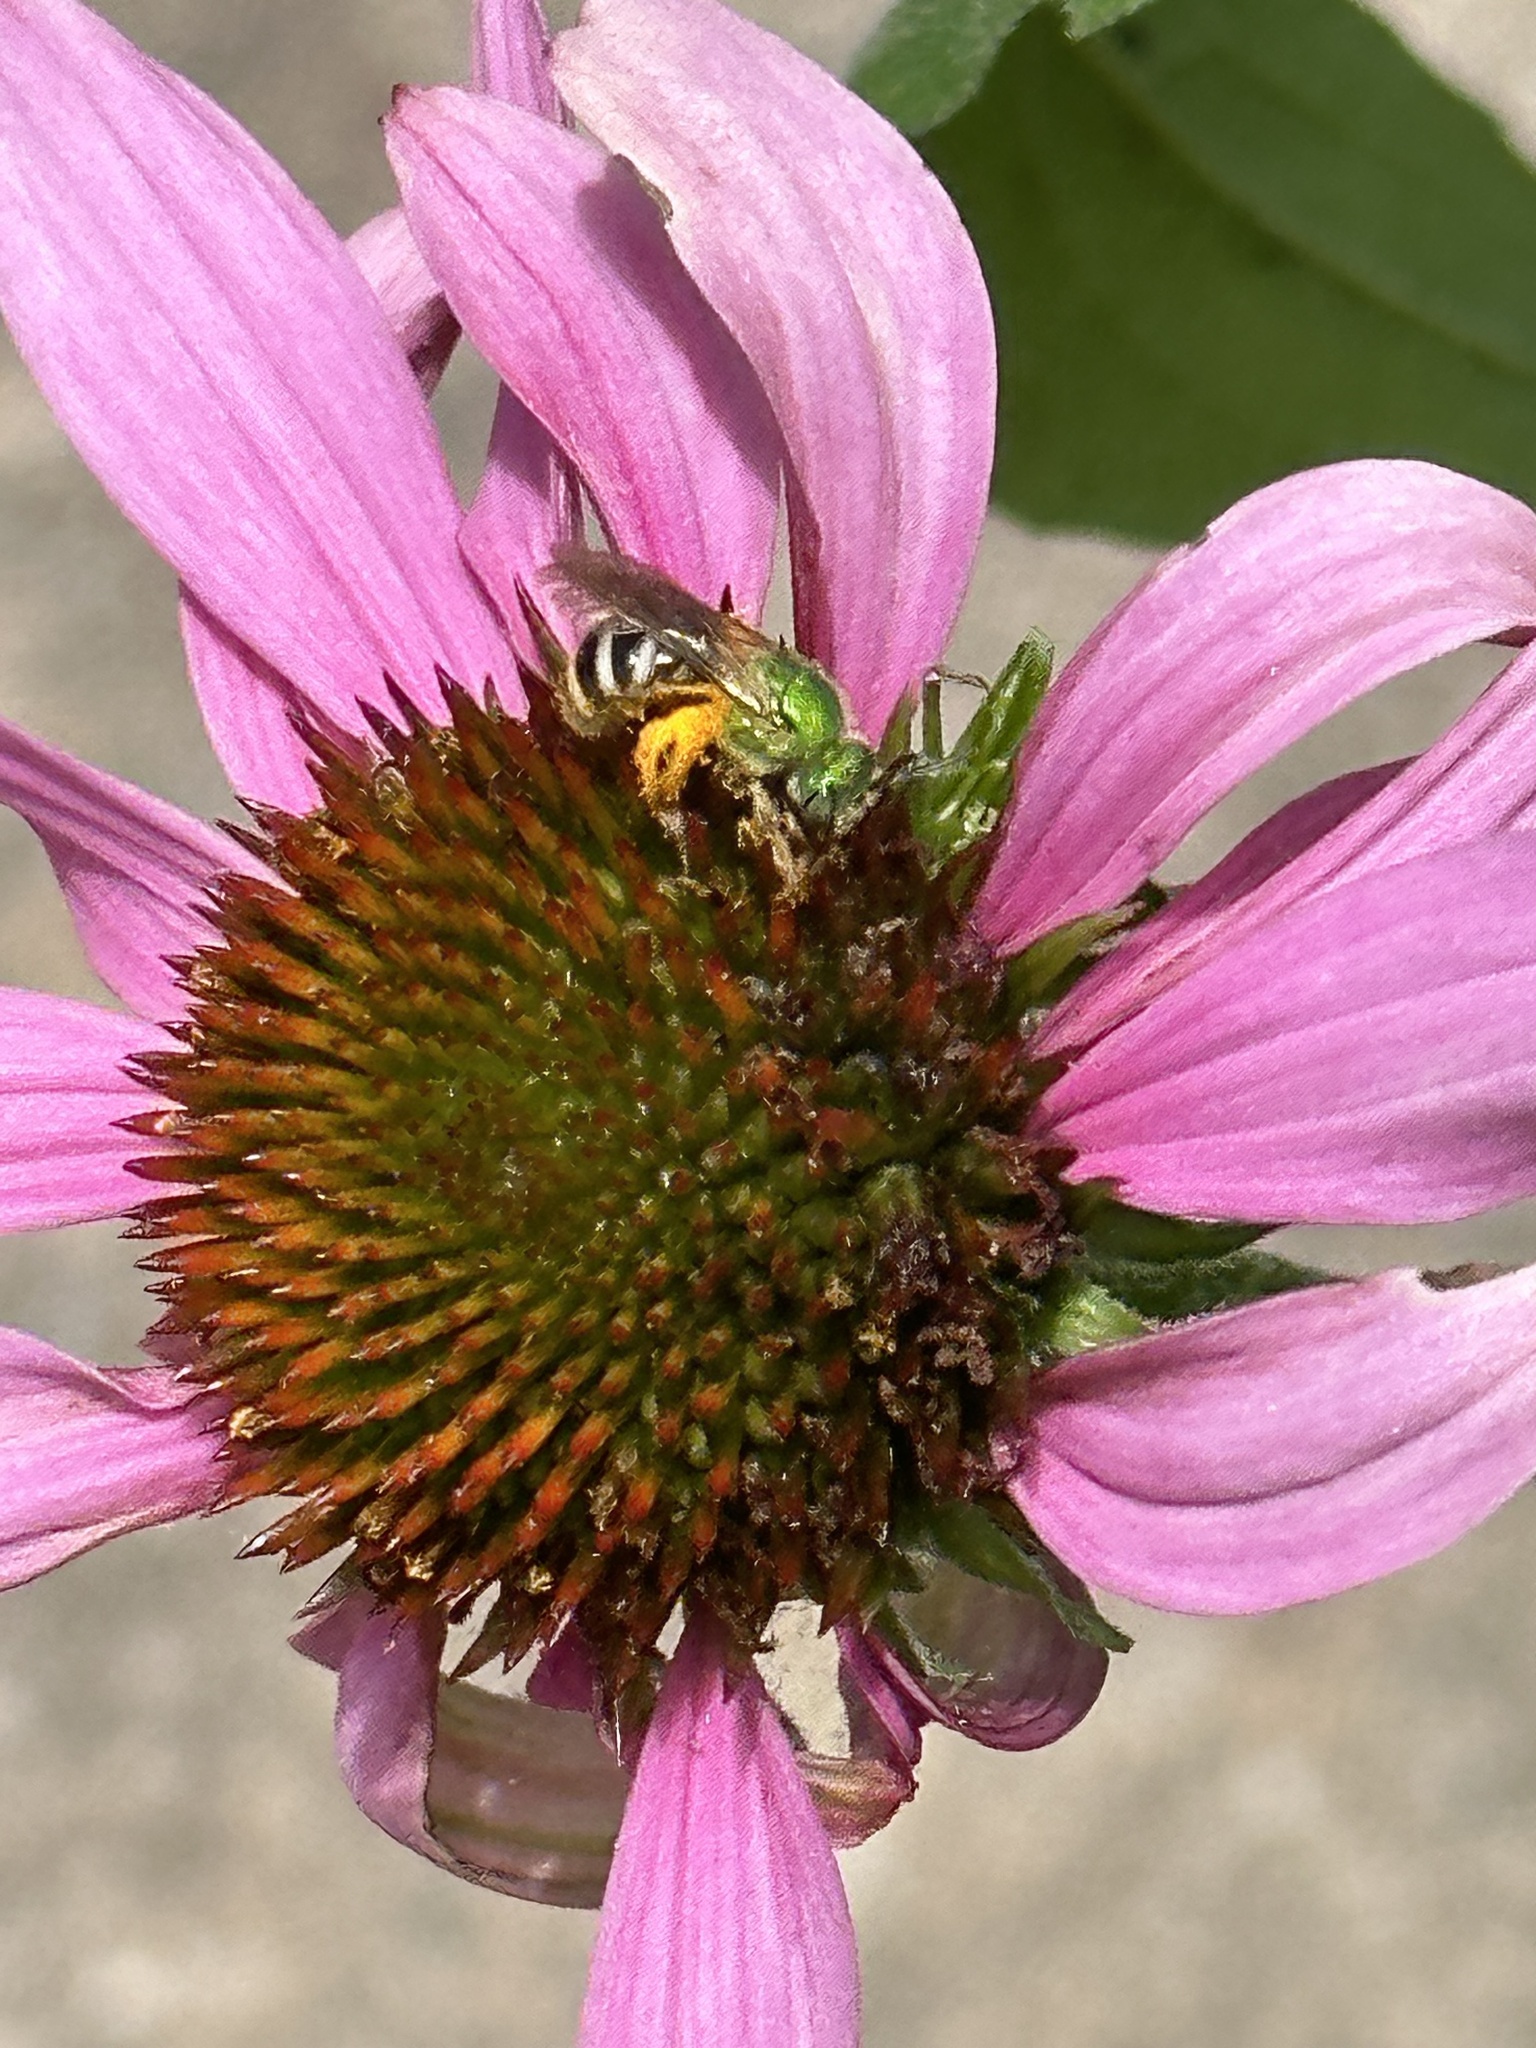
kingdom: Animalia
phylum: Arthropoda
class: Insecta
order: Hymenoptera
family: Halictidae
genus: Agapostemon
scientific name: Agapostemon virescens
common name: Bicolored striped sweat bee
